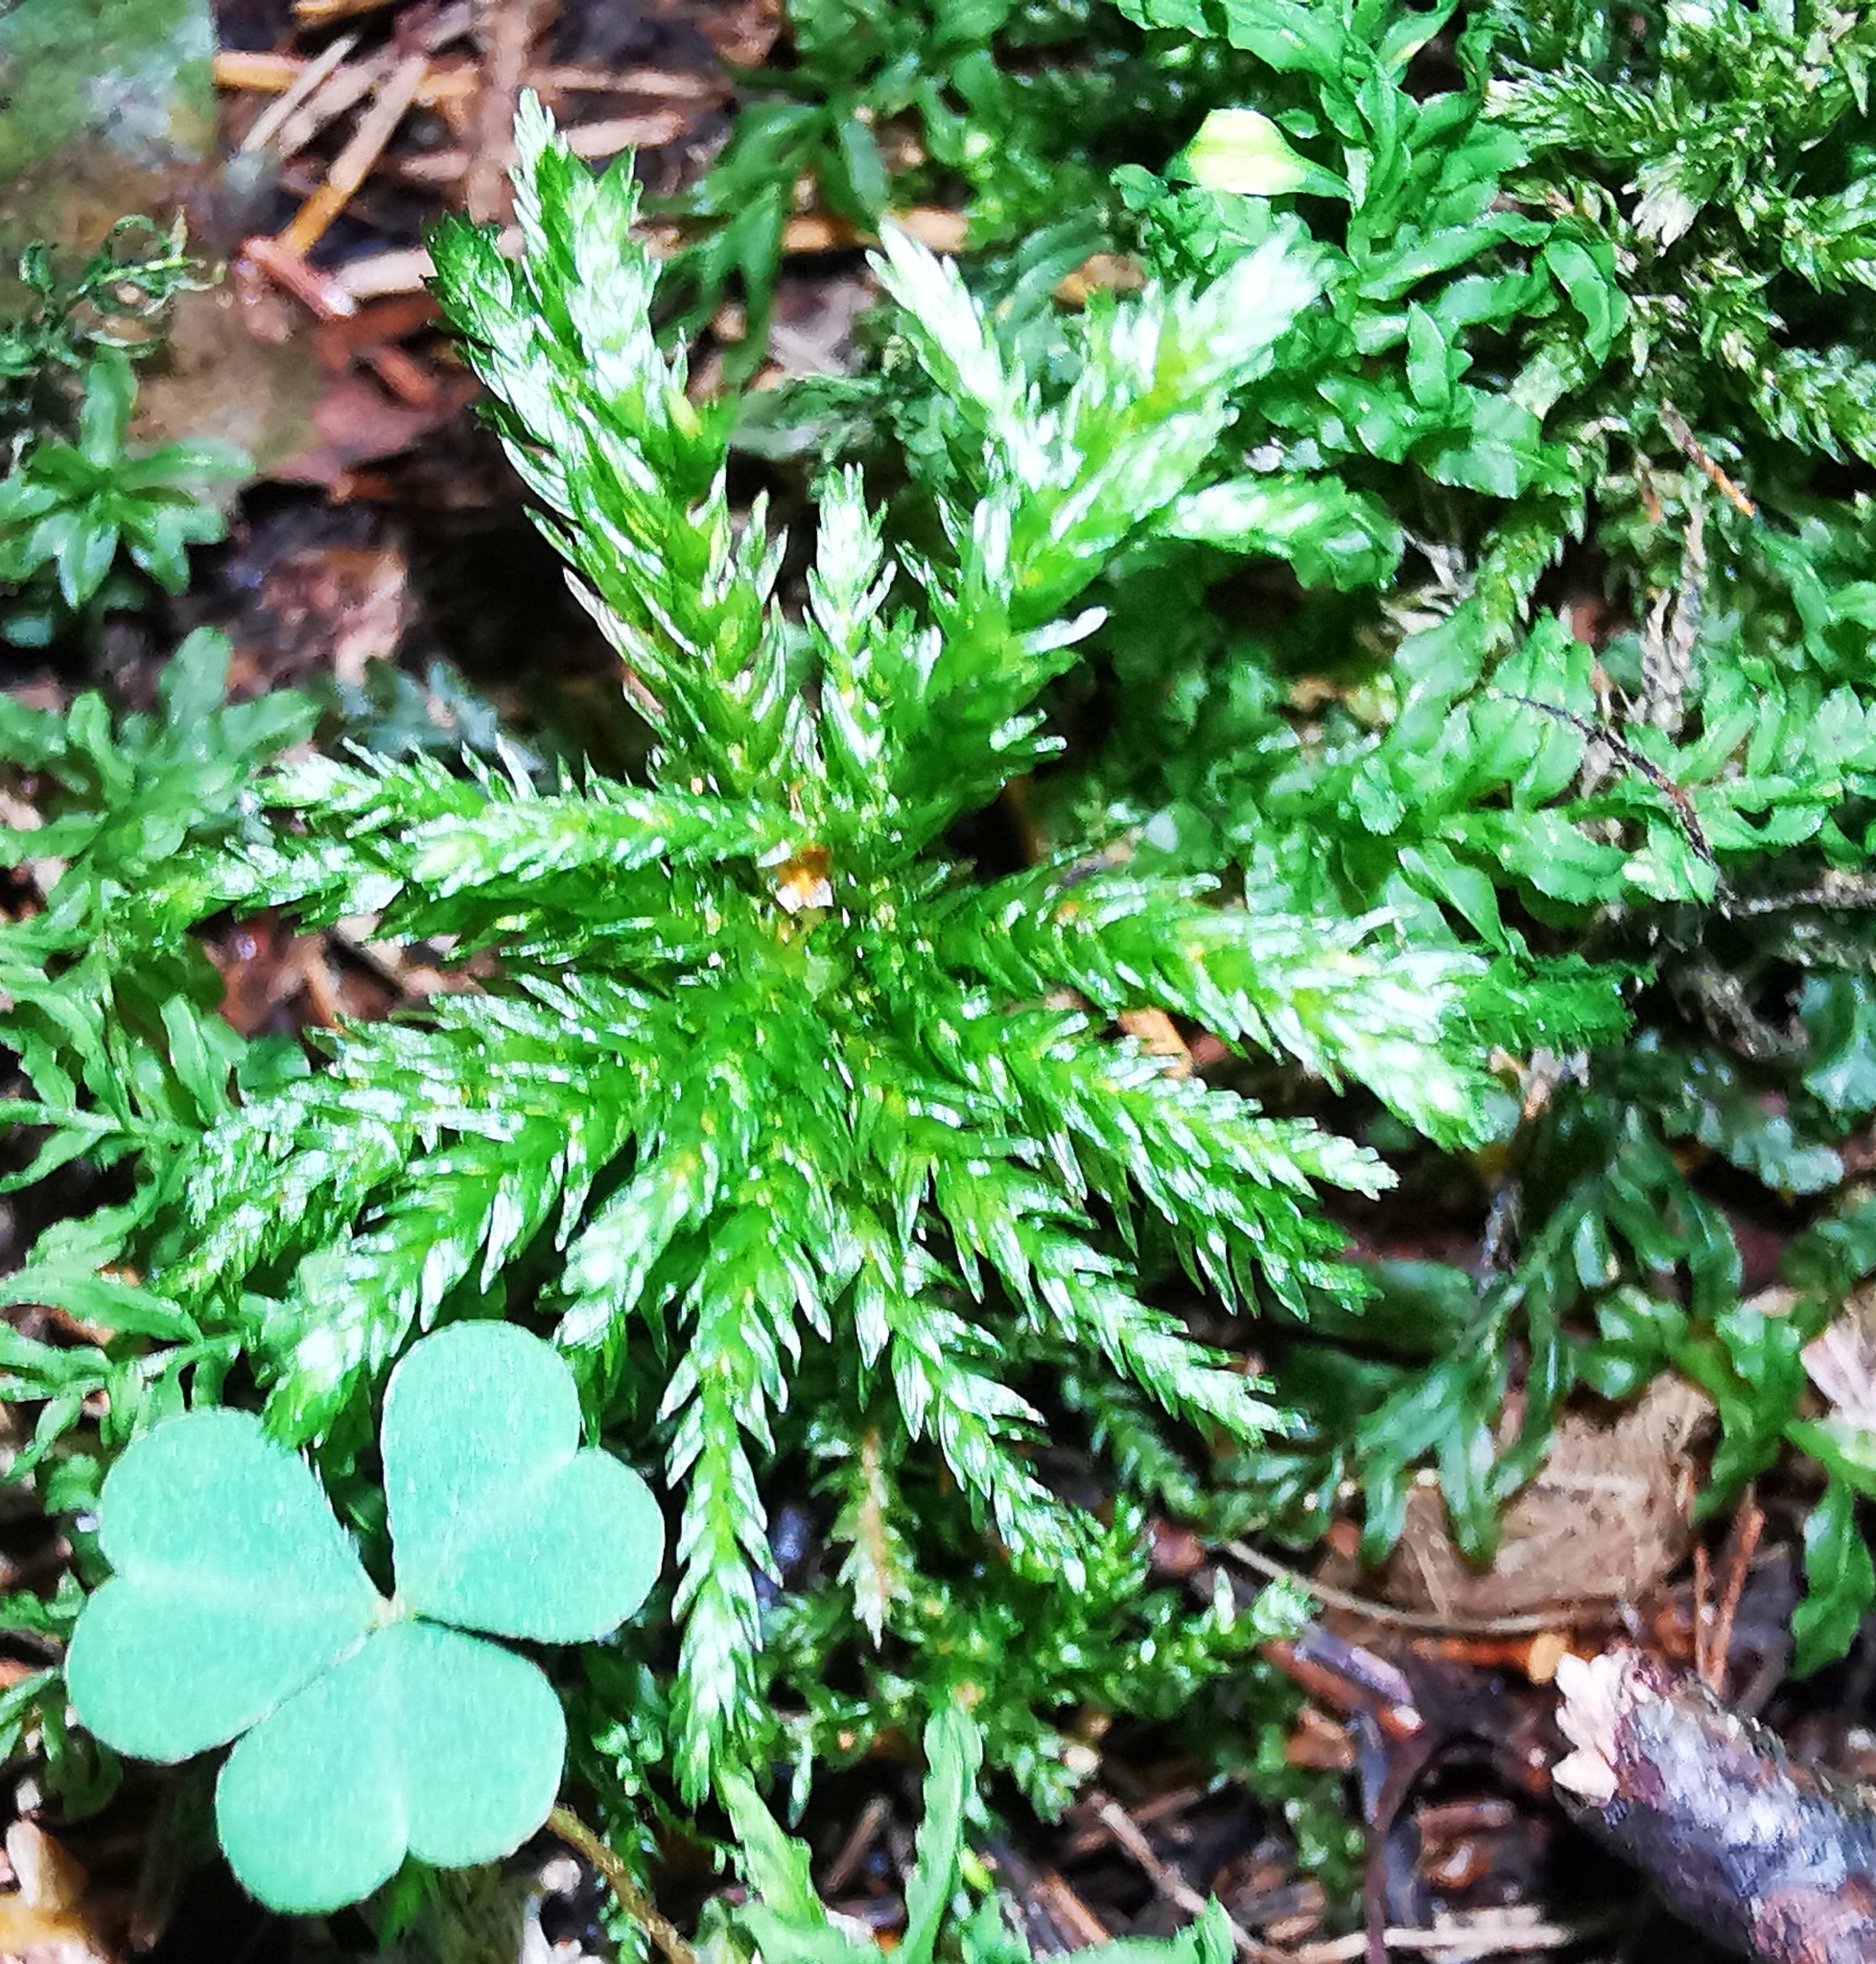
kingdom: Plantae
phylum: Bryophyta
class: Bryopsida
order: Hypnales
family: Climaciaceae
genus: Climacium
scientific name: Climacium dendroides
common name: Northern tree moss
